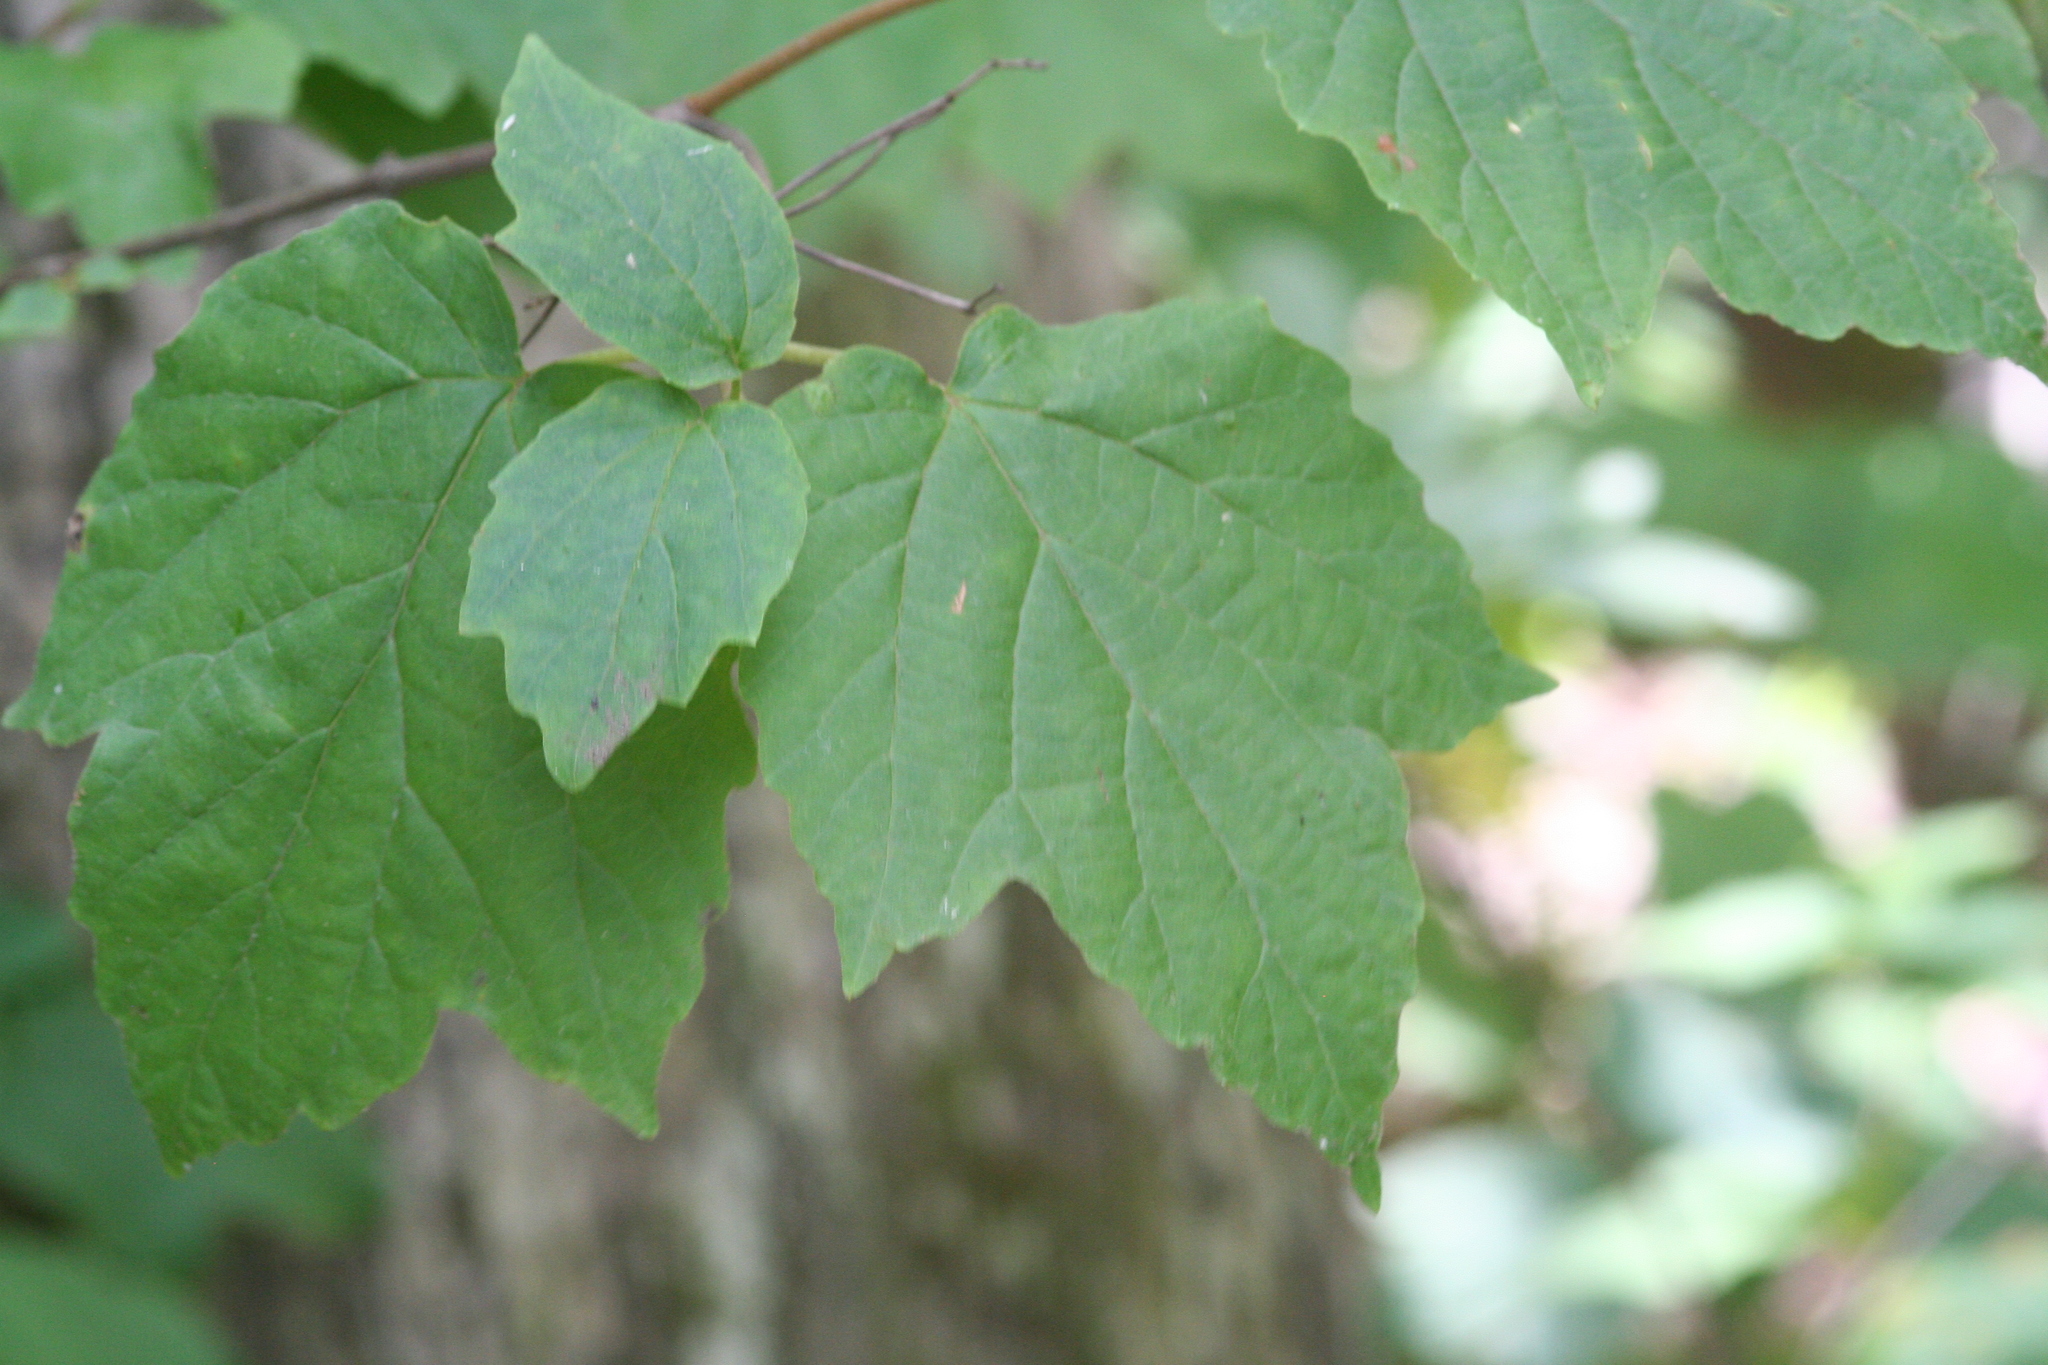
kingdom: Plantae
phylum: Tracheophyta
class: Magnoliopsida
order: Dipsacales
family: Viburnaceae
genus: Viburnum
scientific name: Viburnum acerifolium
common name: Dockmackie
